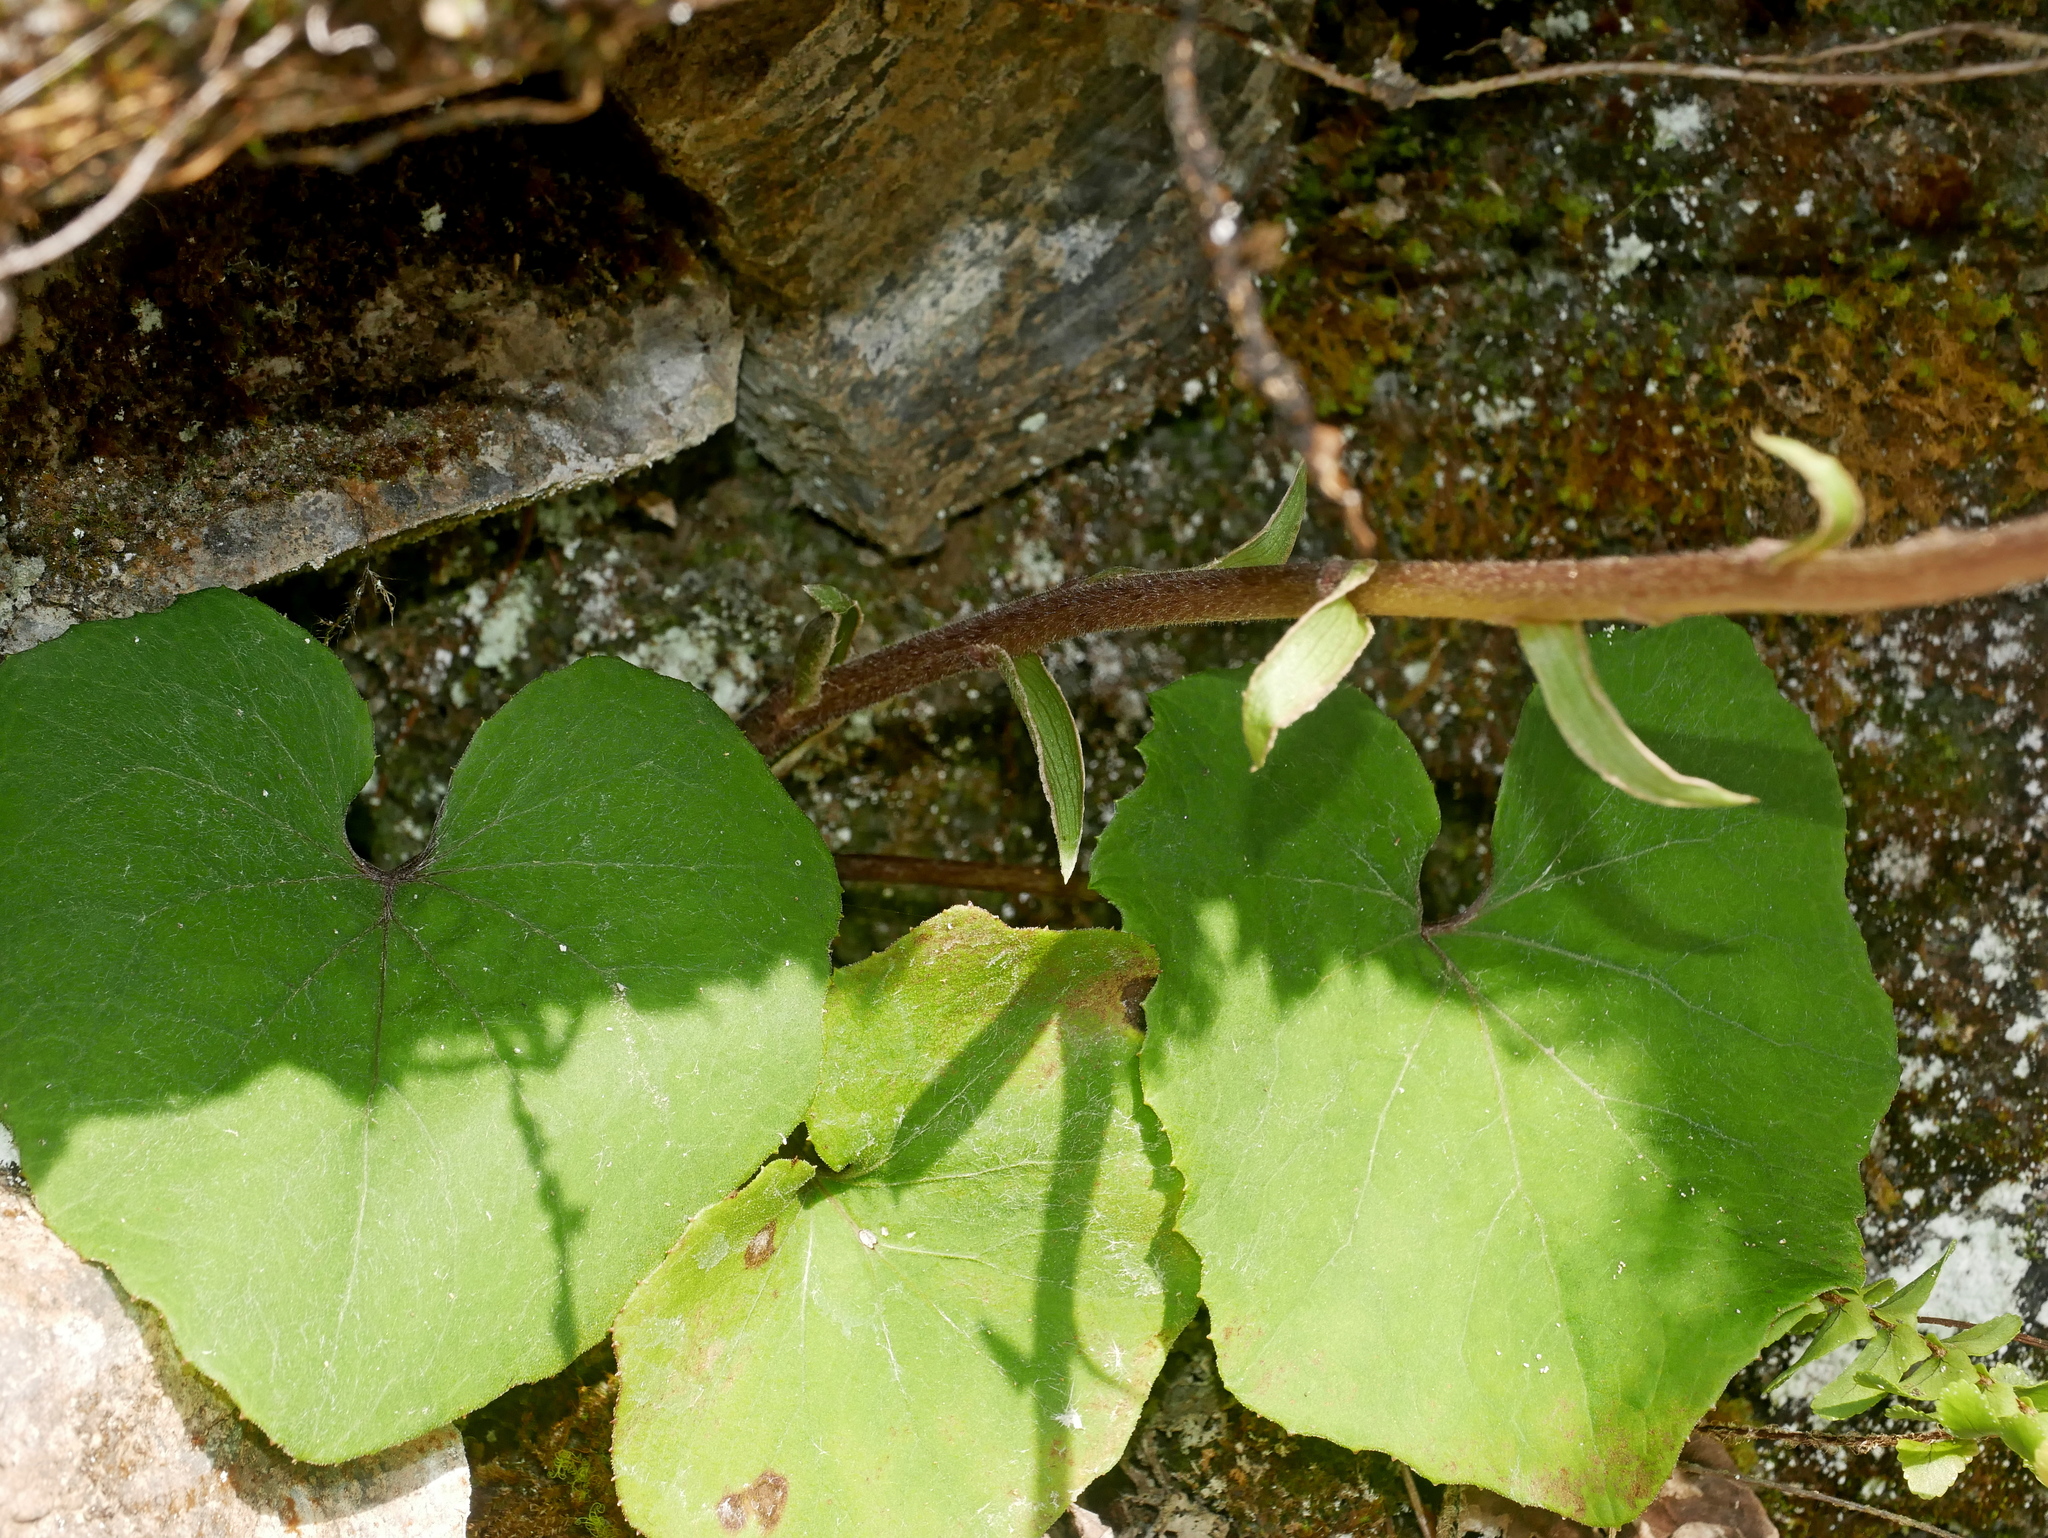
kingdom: Plantae
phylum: Tracheophyta
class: Magnoliopsida
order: Asterales
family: Asteraceae
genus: Petasites
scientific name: Petasites formosanus
